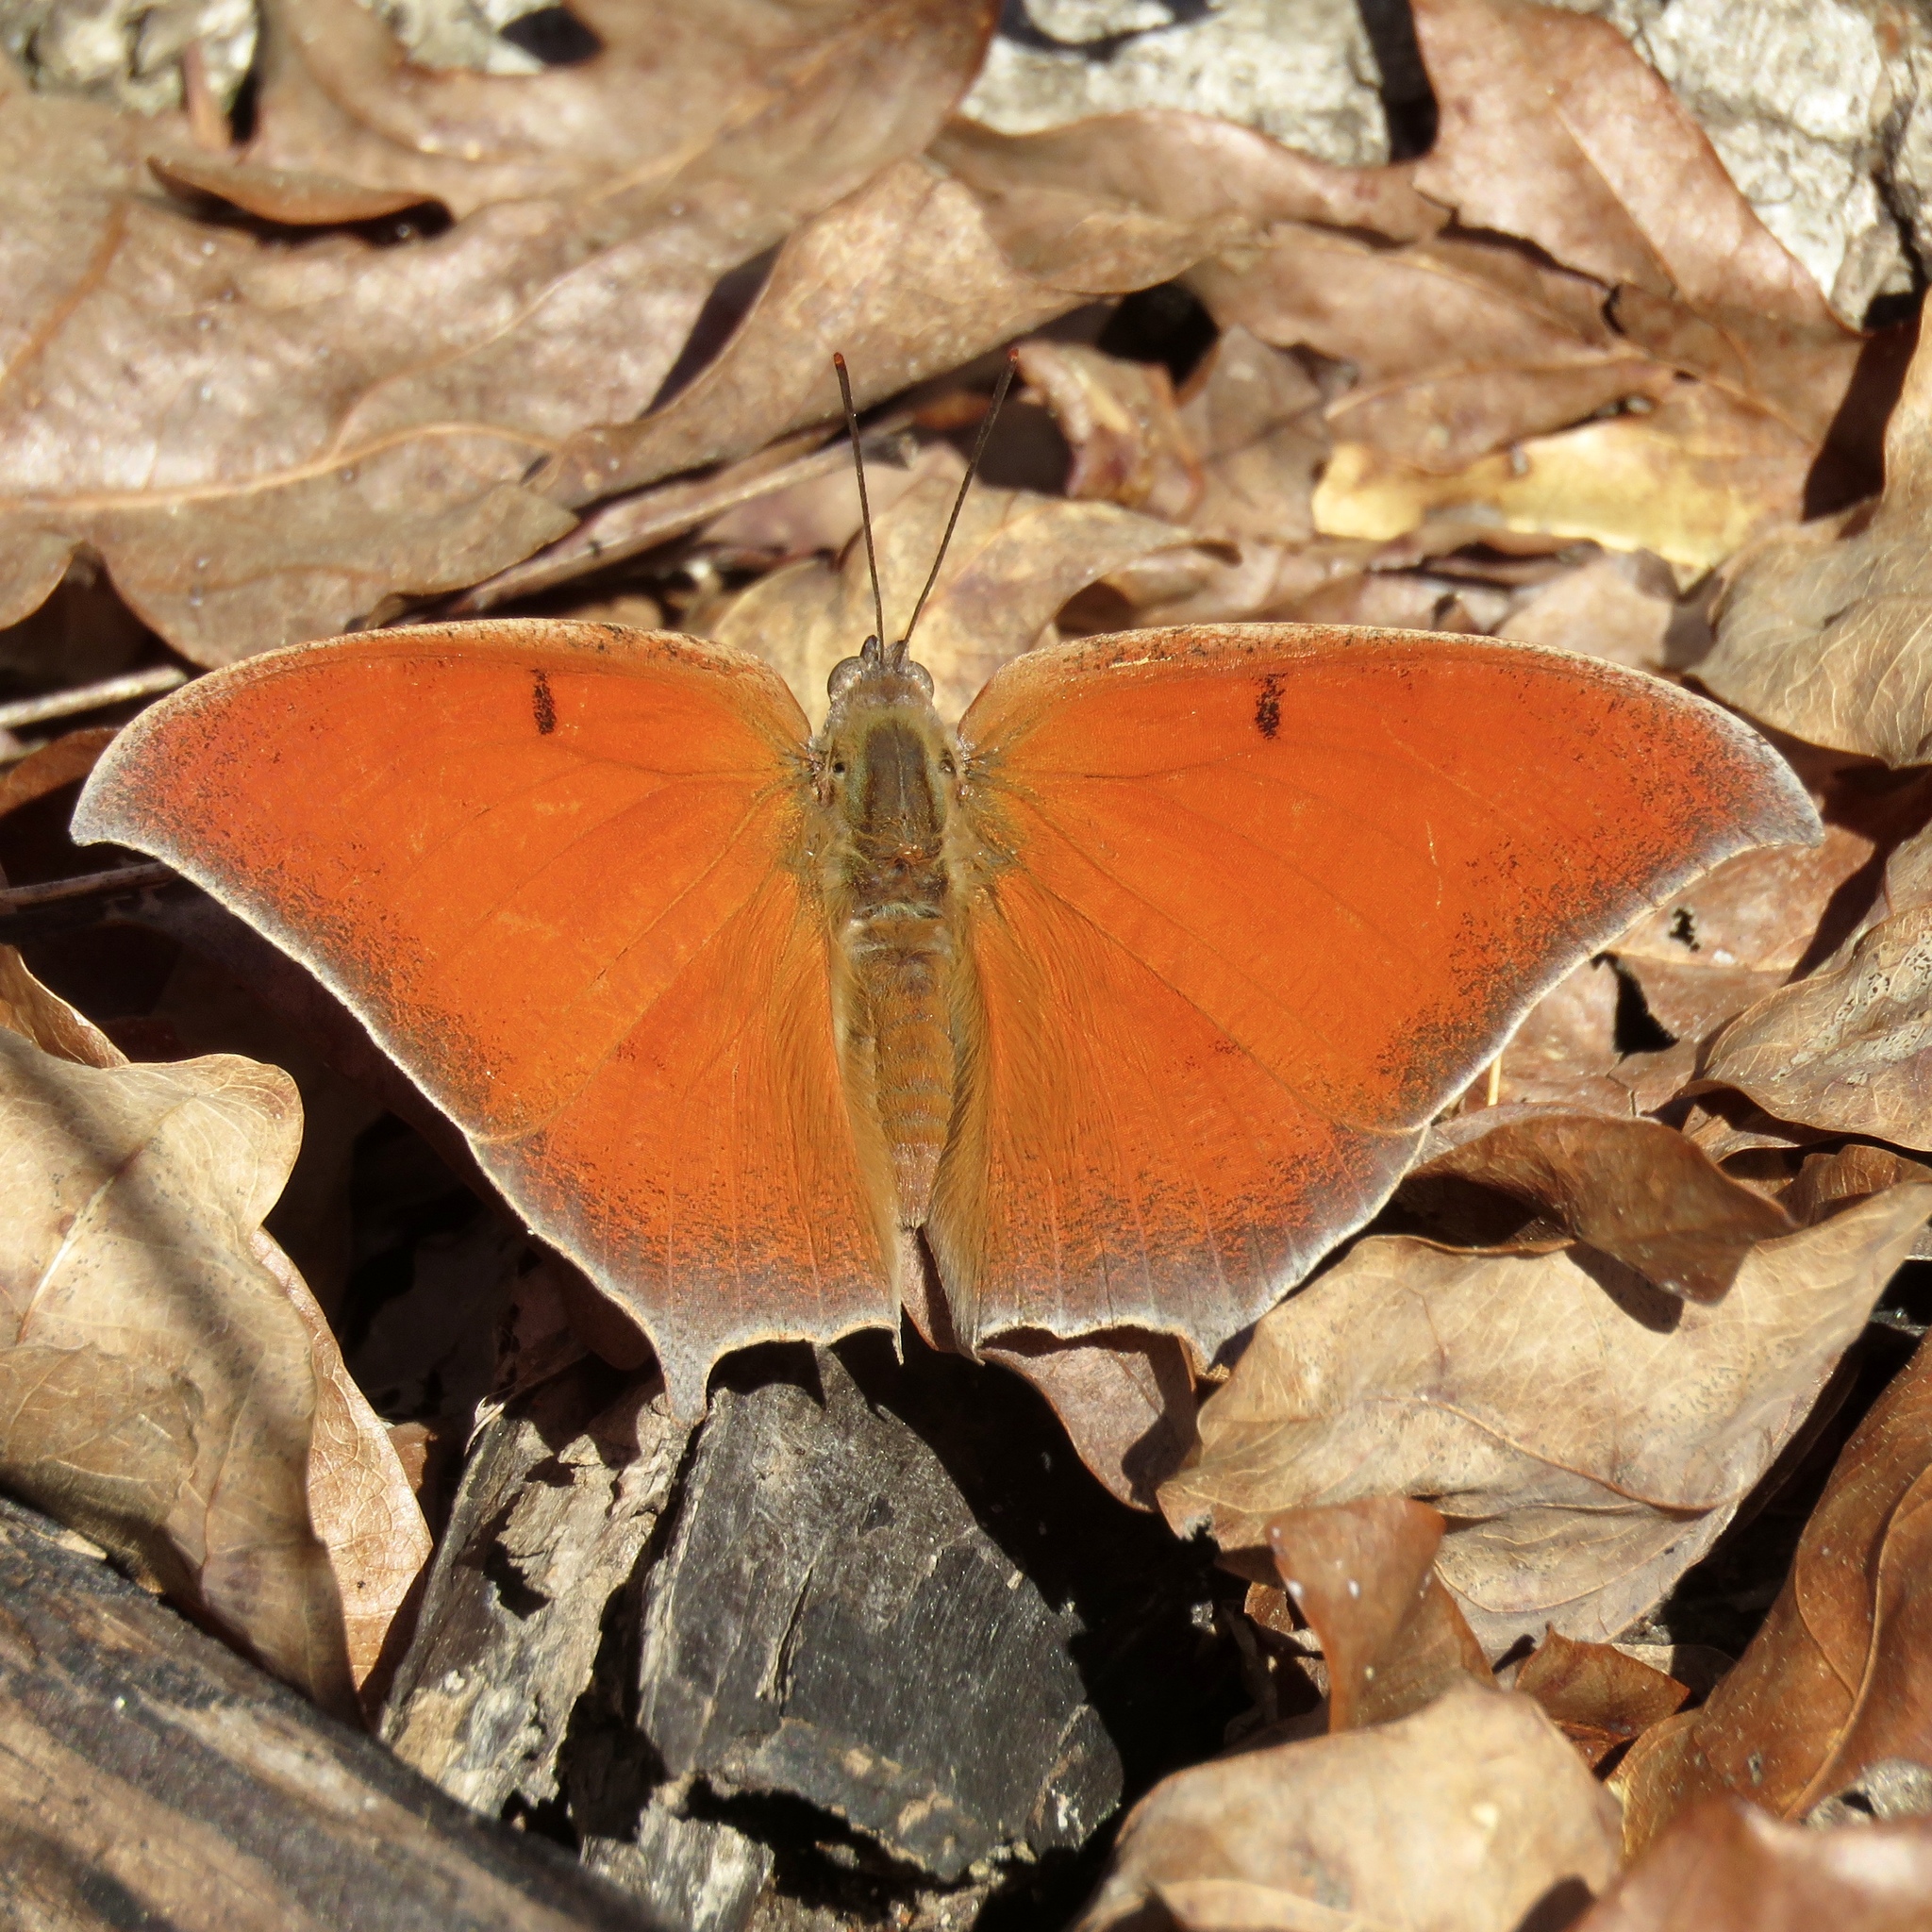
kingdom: Animalia
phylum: Arthropoda
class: Insecta
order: Lepidoptera
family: Nymphalidae
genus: Anaea
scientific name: Anaea andria
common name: Goatweed leafwing
